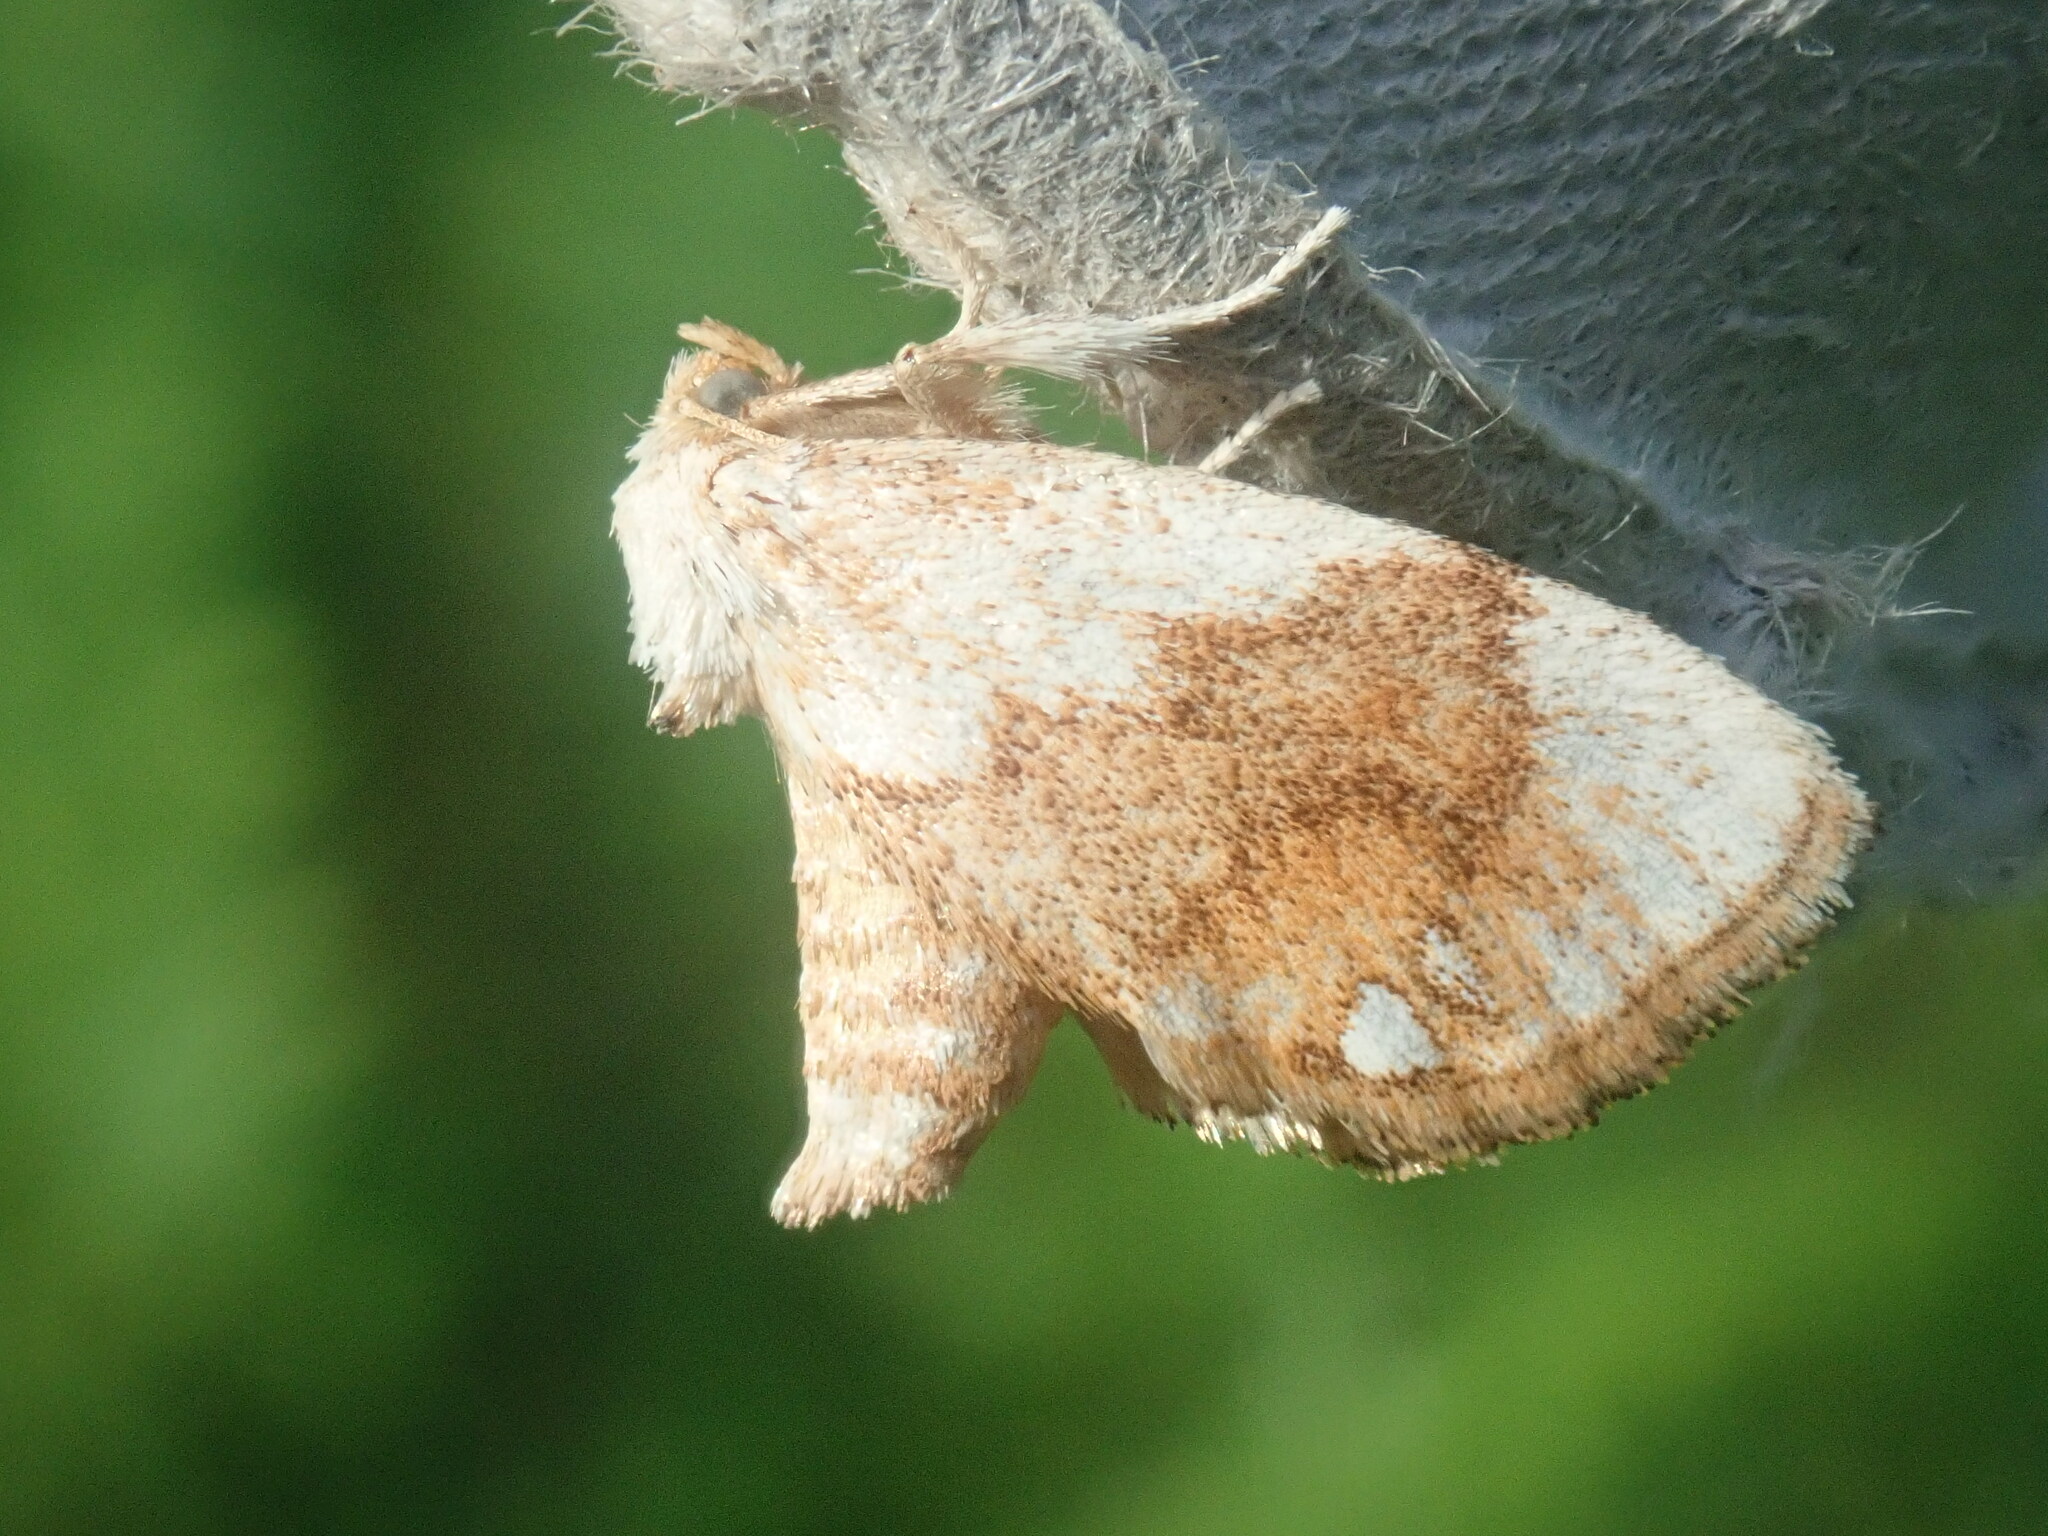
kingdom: Animalia
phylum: Arthropoda
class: Insecta
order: Lepidoptera
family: Limacodidae
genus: Packardia
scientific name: Packardia geminata
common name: Jeweled tailed slug moth
